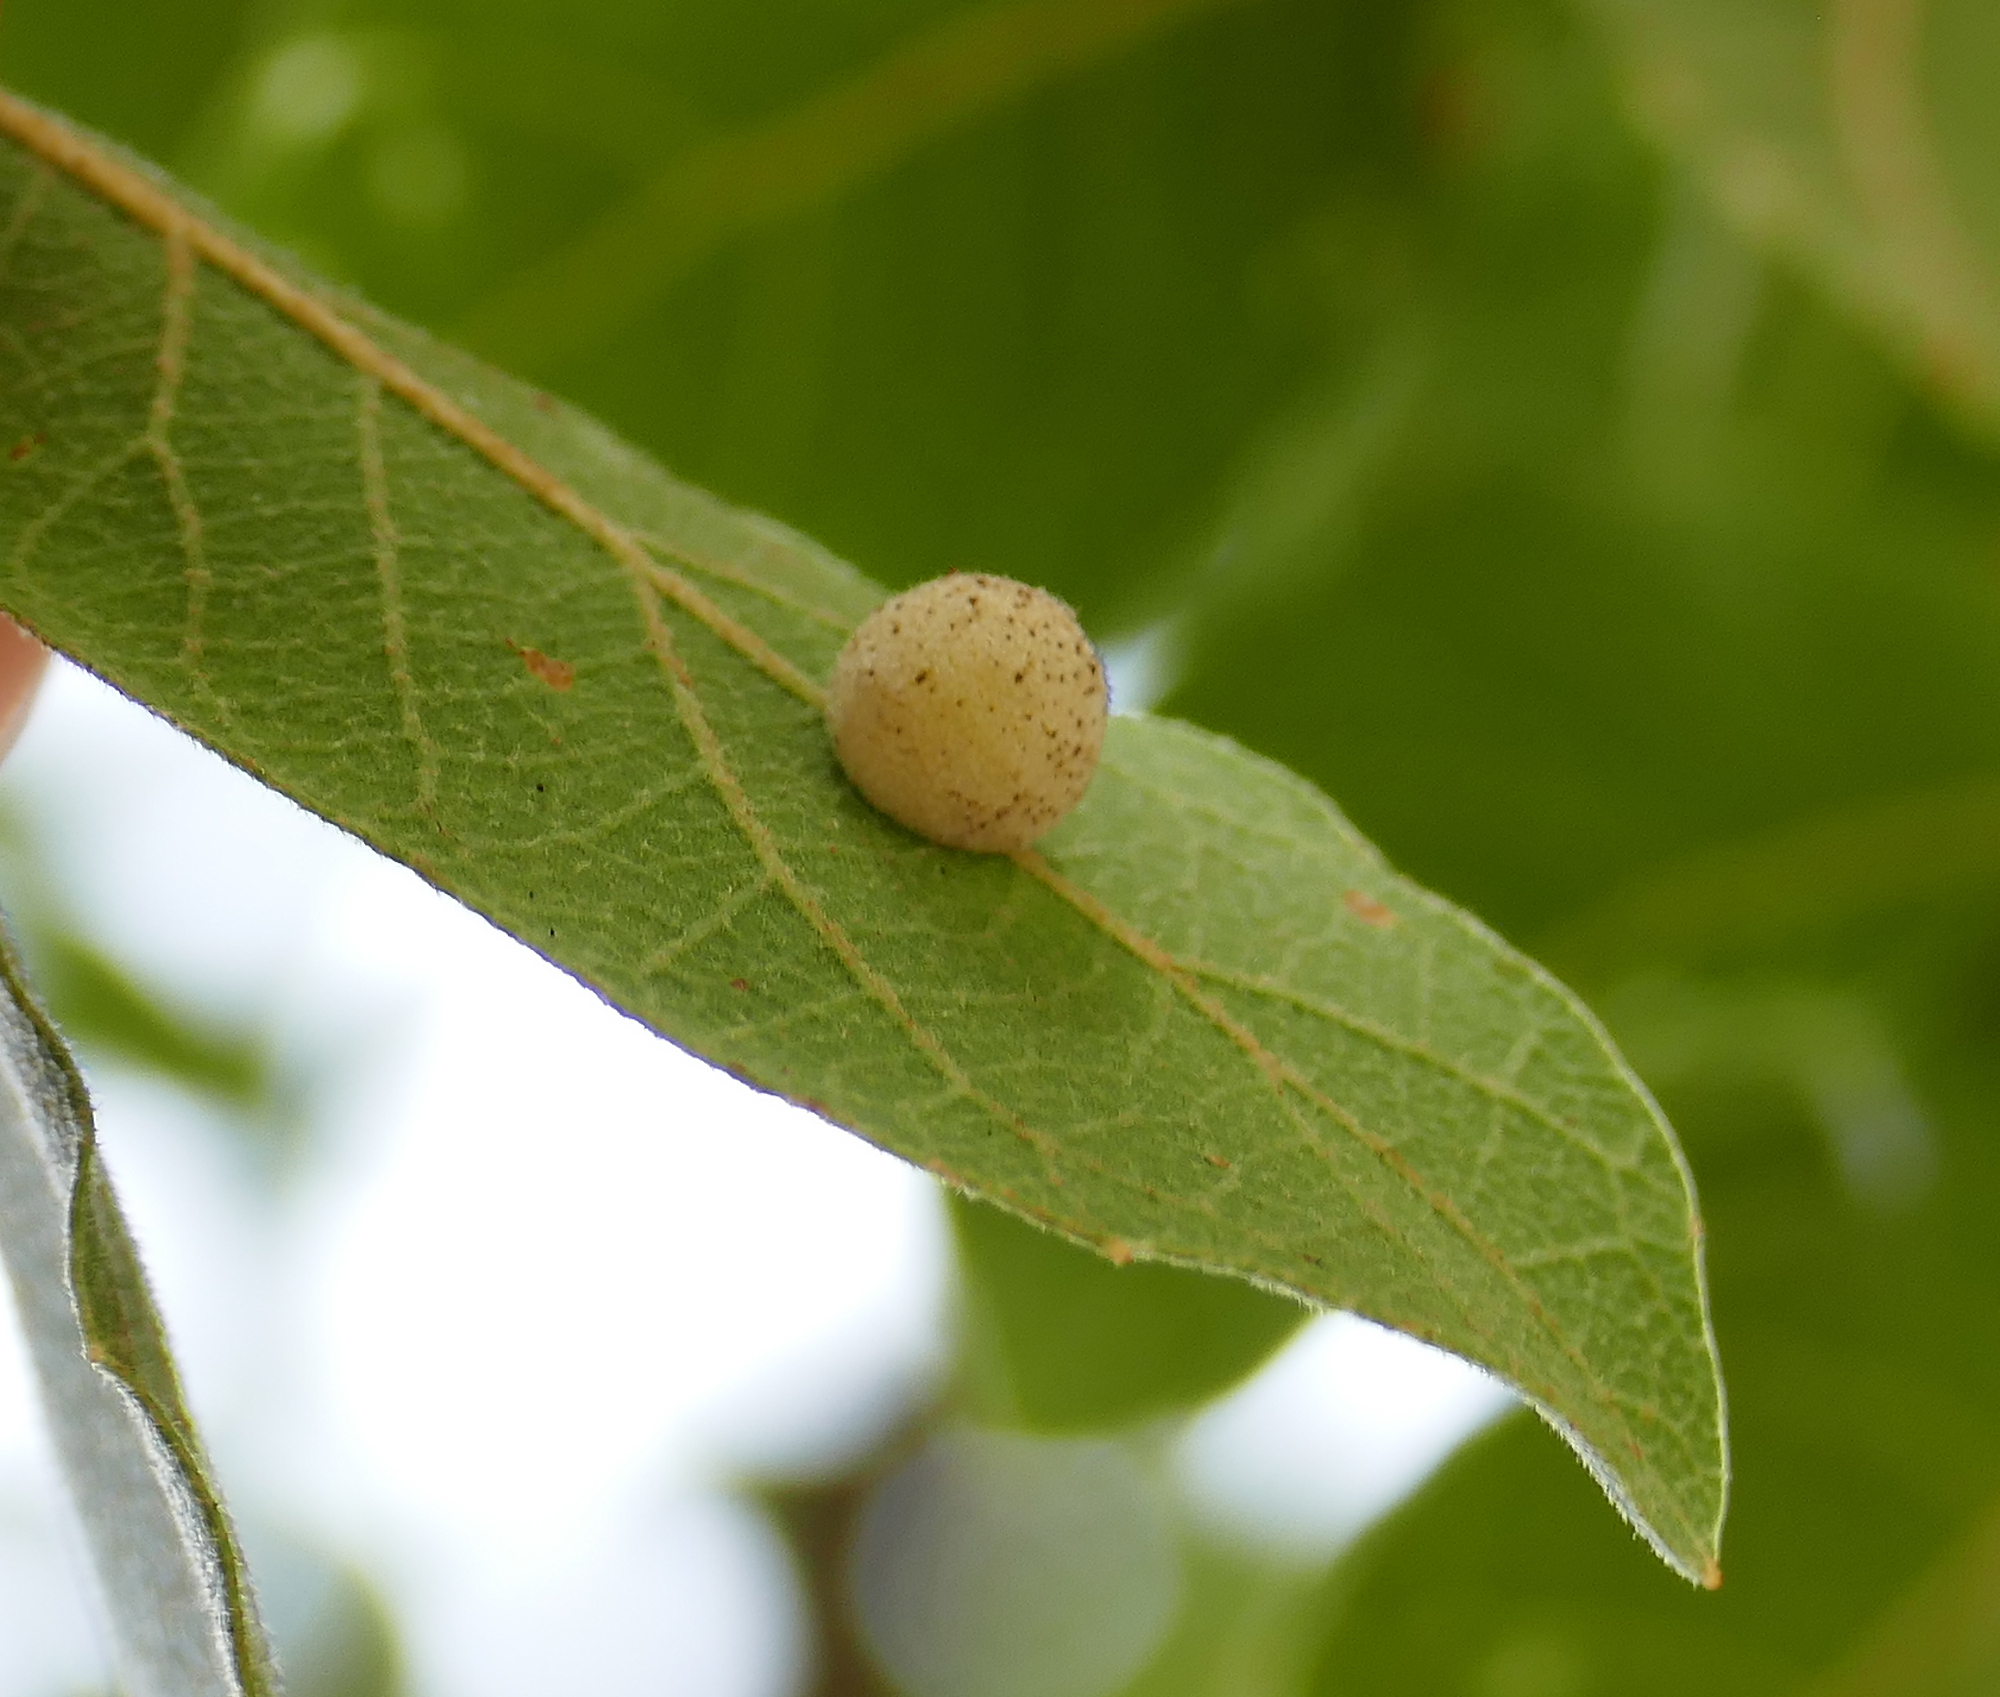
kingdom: Animalia
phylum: Arthropoda
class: Insecta
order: Hymenoptera
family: Cynipidae
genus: Cynips
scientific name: Cynips Antron tomkursari
